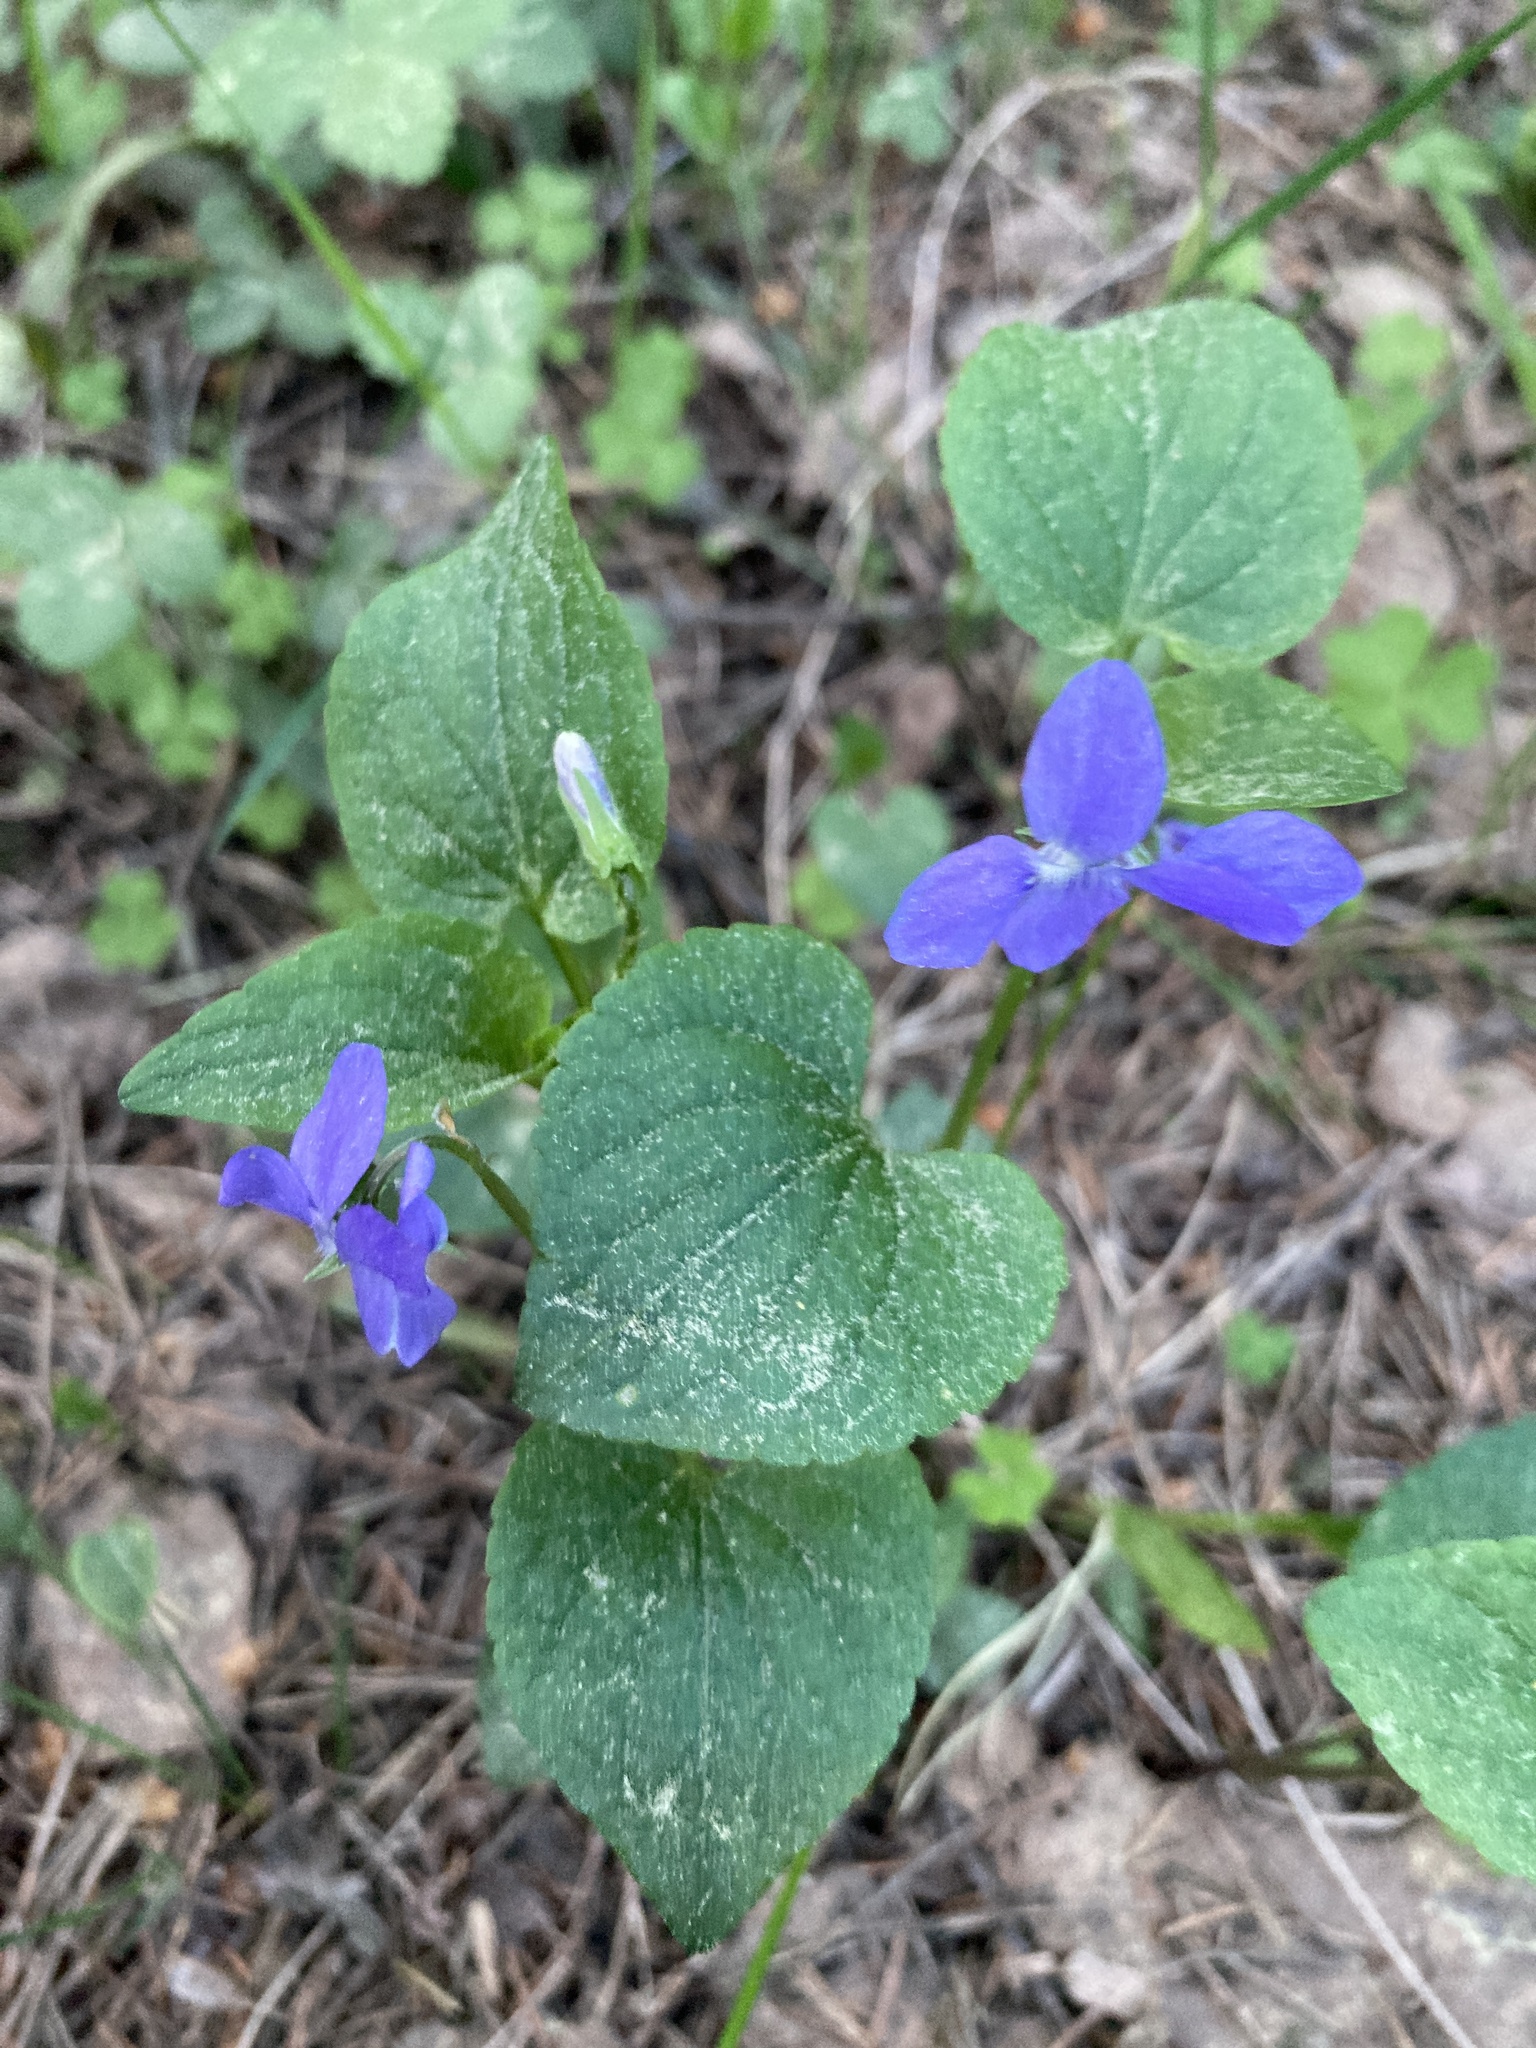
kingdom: Plantae
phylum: Tracheophyta
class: Magnoliopsida
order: Malpighiales
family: Violaceae
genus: Viola
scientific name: Viola riviniana
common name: Common dog-violet
